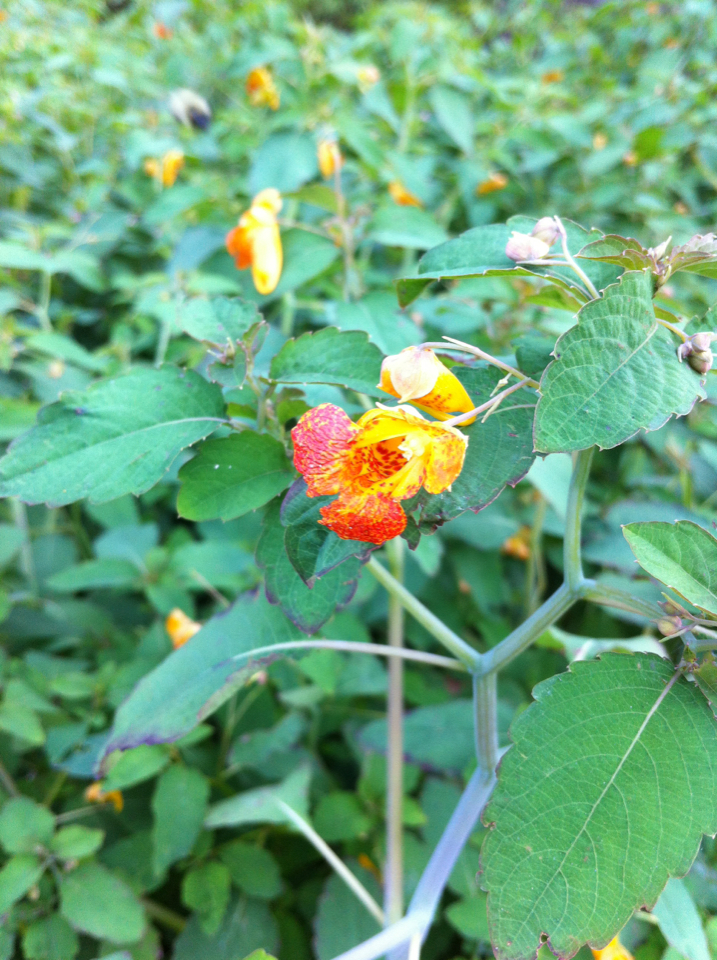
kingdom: Plantae
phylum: Tracheophyta
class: Magnoliopsida
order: Ericales
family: Balsaminaceae
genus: Impatiens
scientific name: Impatiens capensis
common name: Orange balsam
